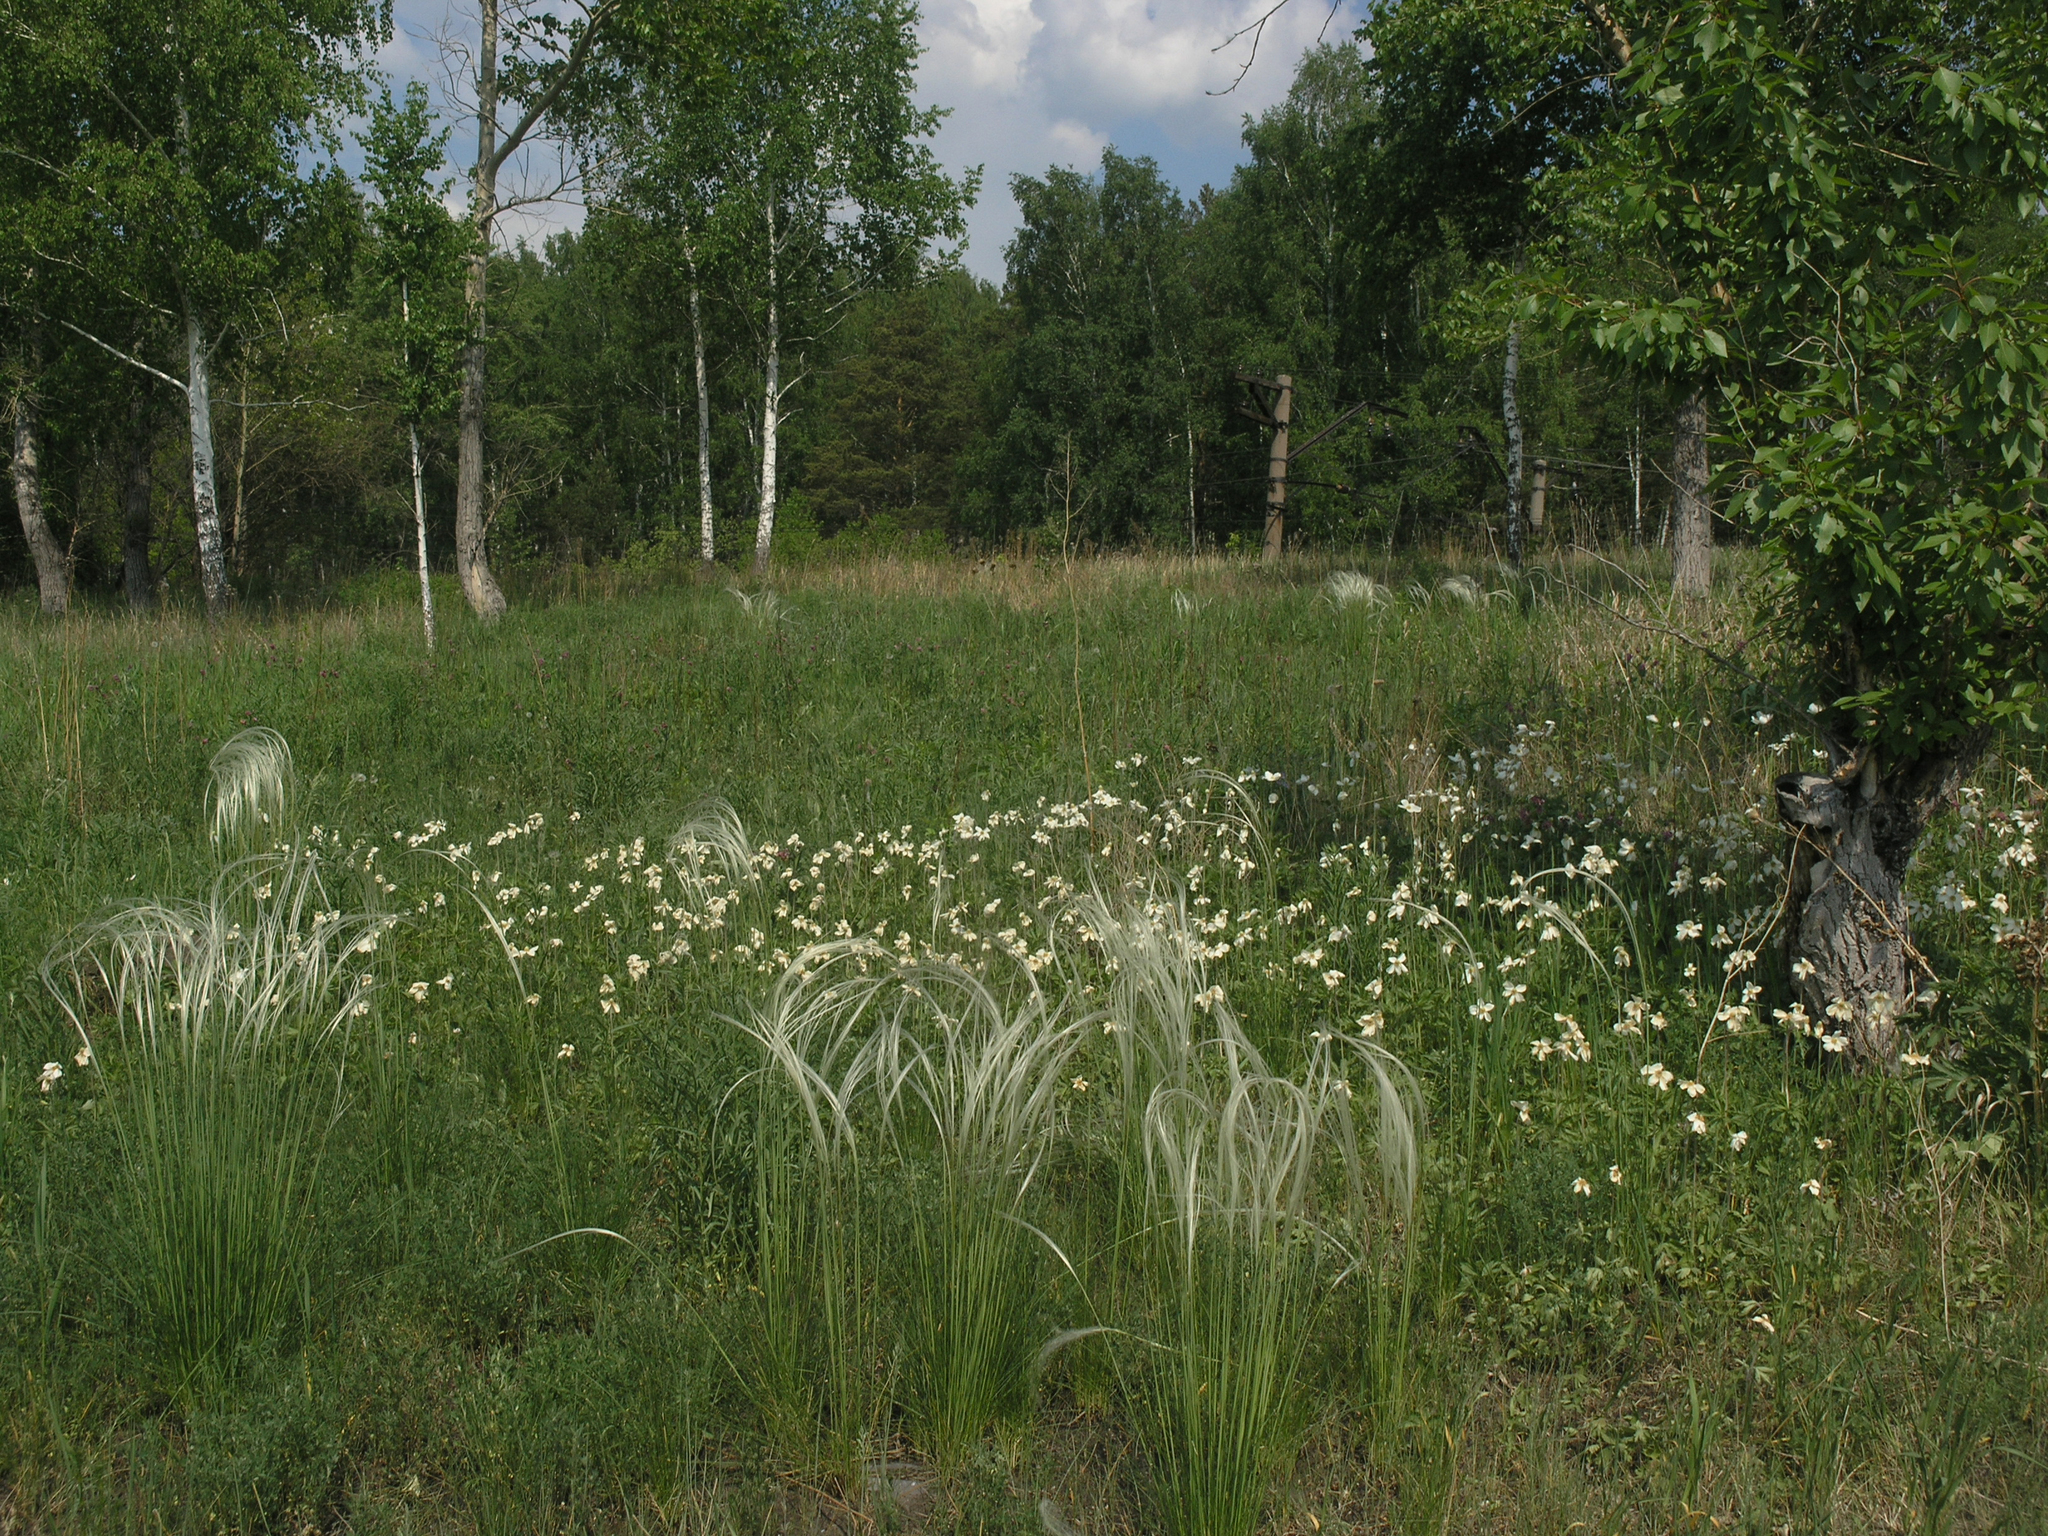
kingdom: Plantae
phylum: Tracheophyta
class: Magnoliopsida
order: Ranunculales
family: Ranunculaceae
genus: Anemone
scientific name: Anemone sylvestris
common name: Snowdrop anemone
